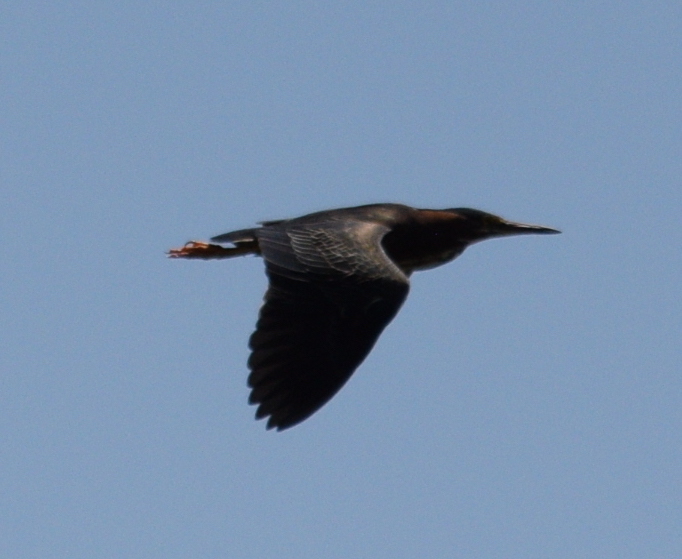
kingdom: Animalia
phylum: Chordata
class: Aves
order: Pelecaniformes
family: Ardeidae
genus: Butorides
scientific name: Butorides virescens
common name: Green heron
